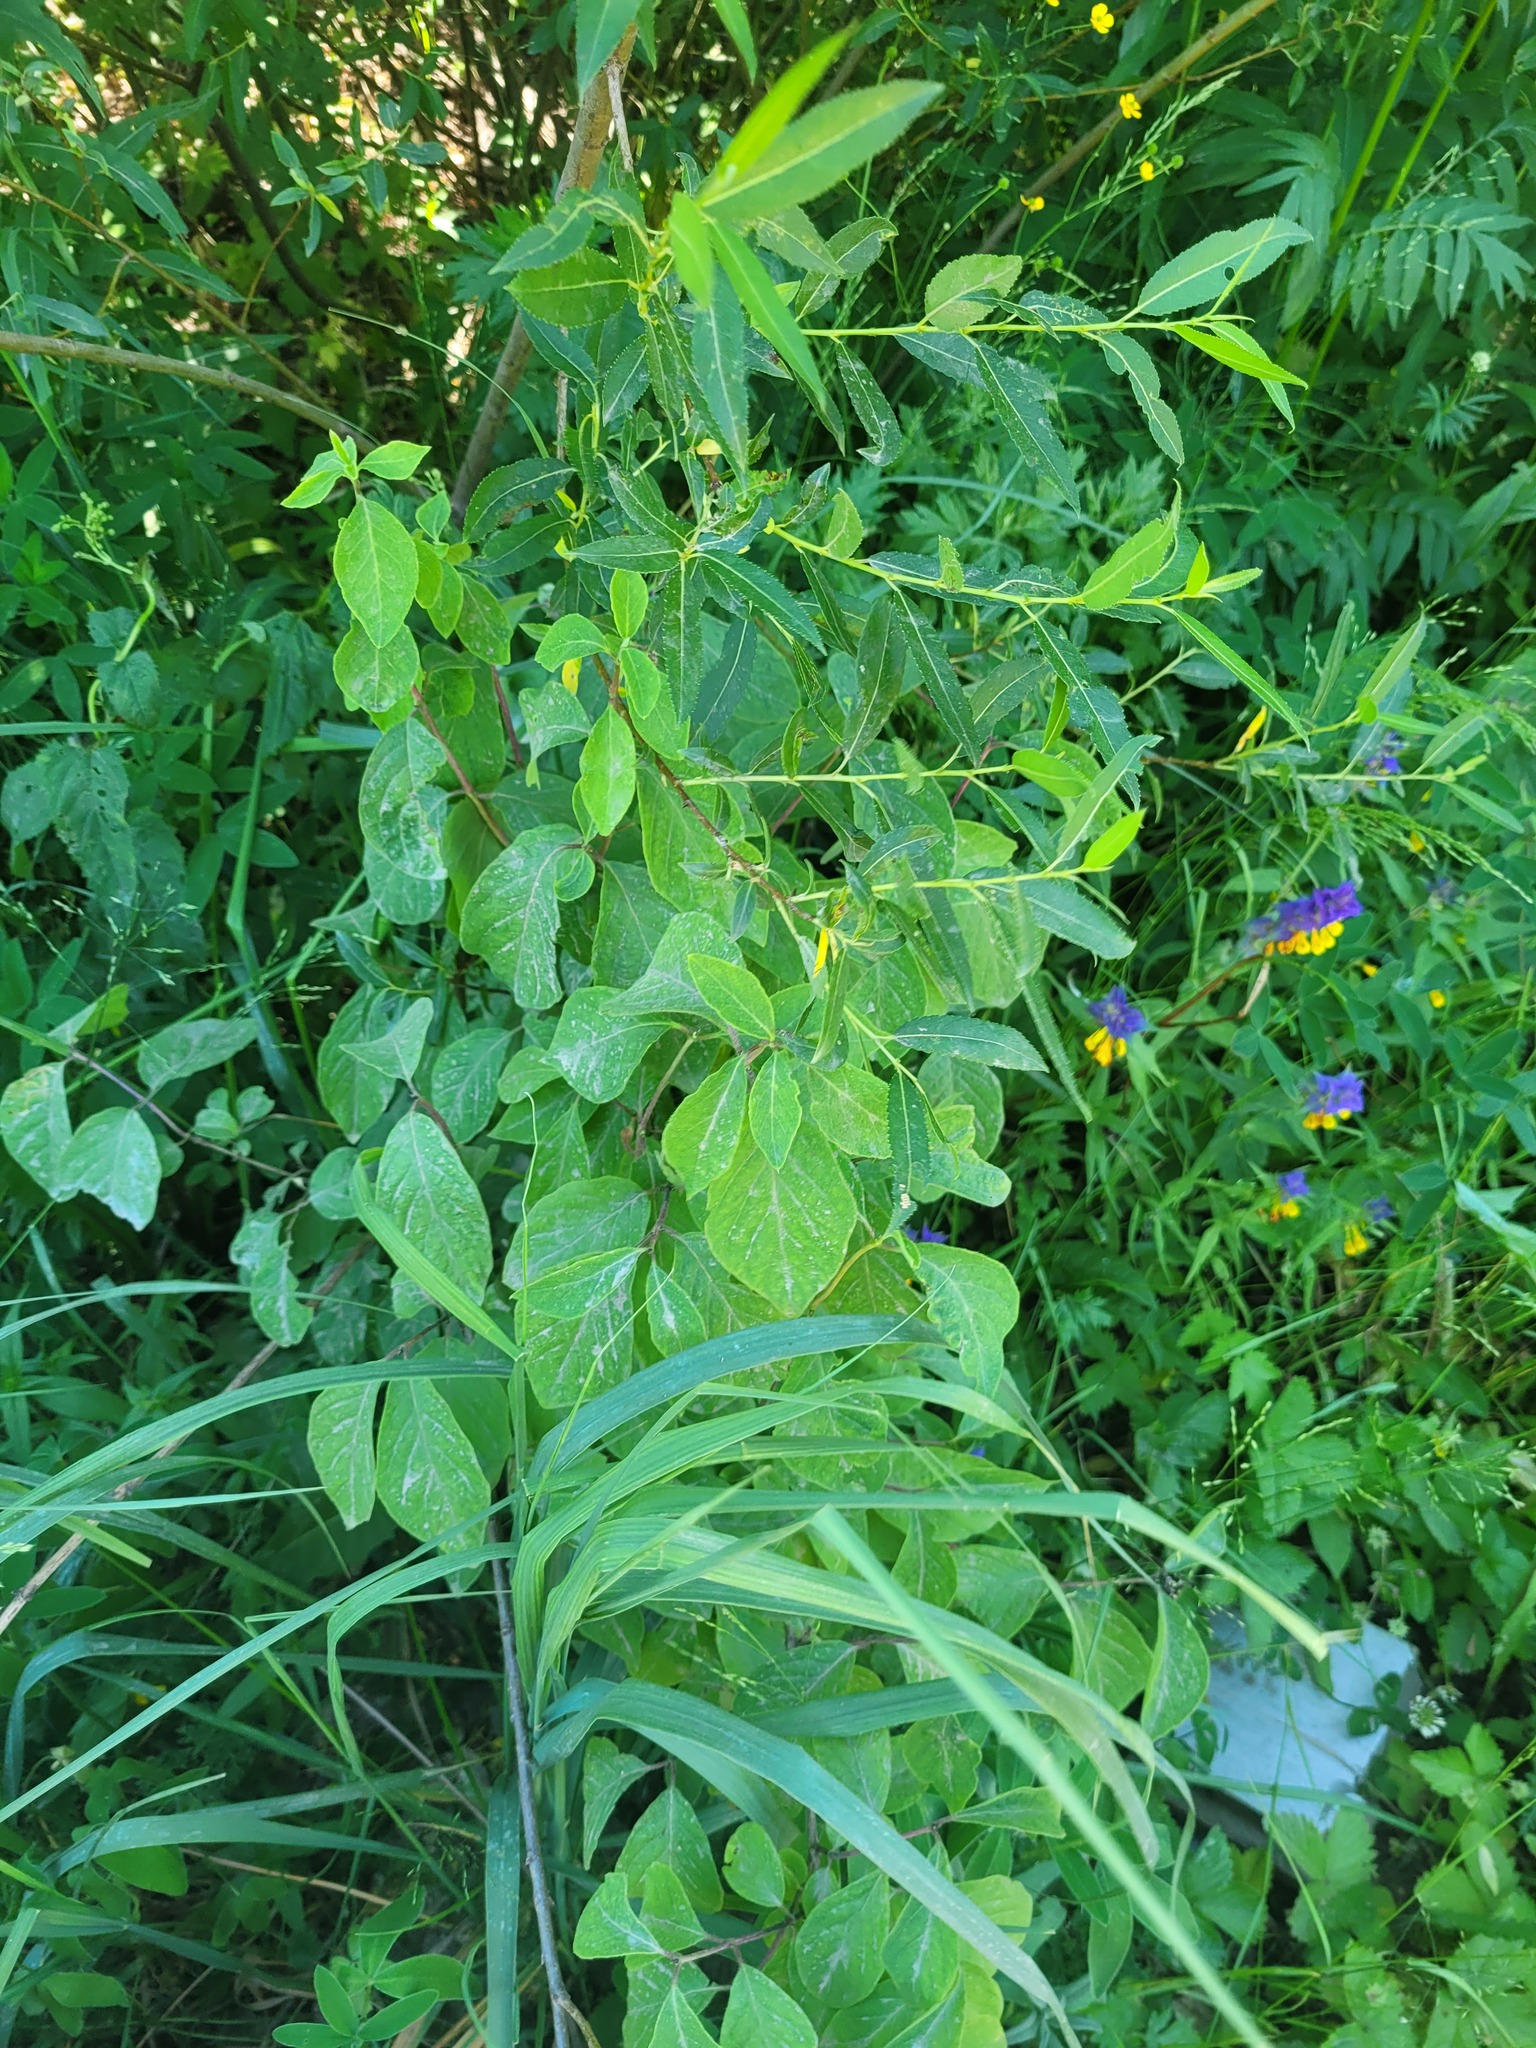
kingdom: Plantae
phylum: Tracheophyta
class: Magnoliopsida
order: Dipsacales
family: Caprifoliaceae
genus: Lonicera
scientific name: Lonicera xylosteum
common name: Fly honeysuckle
